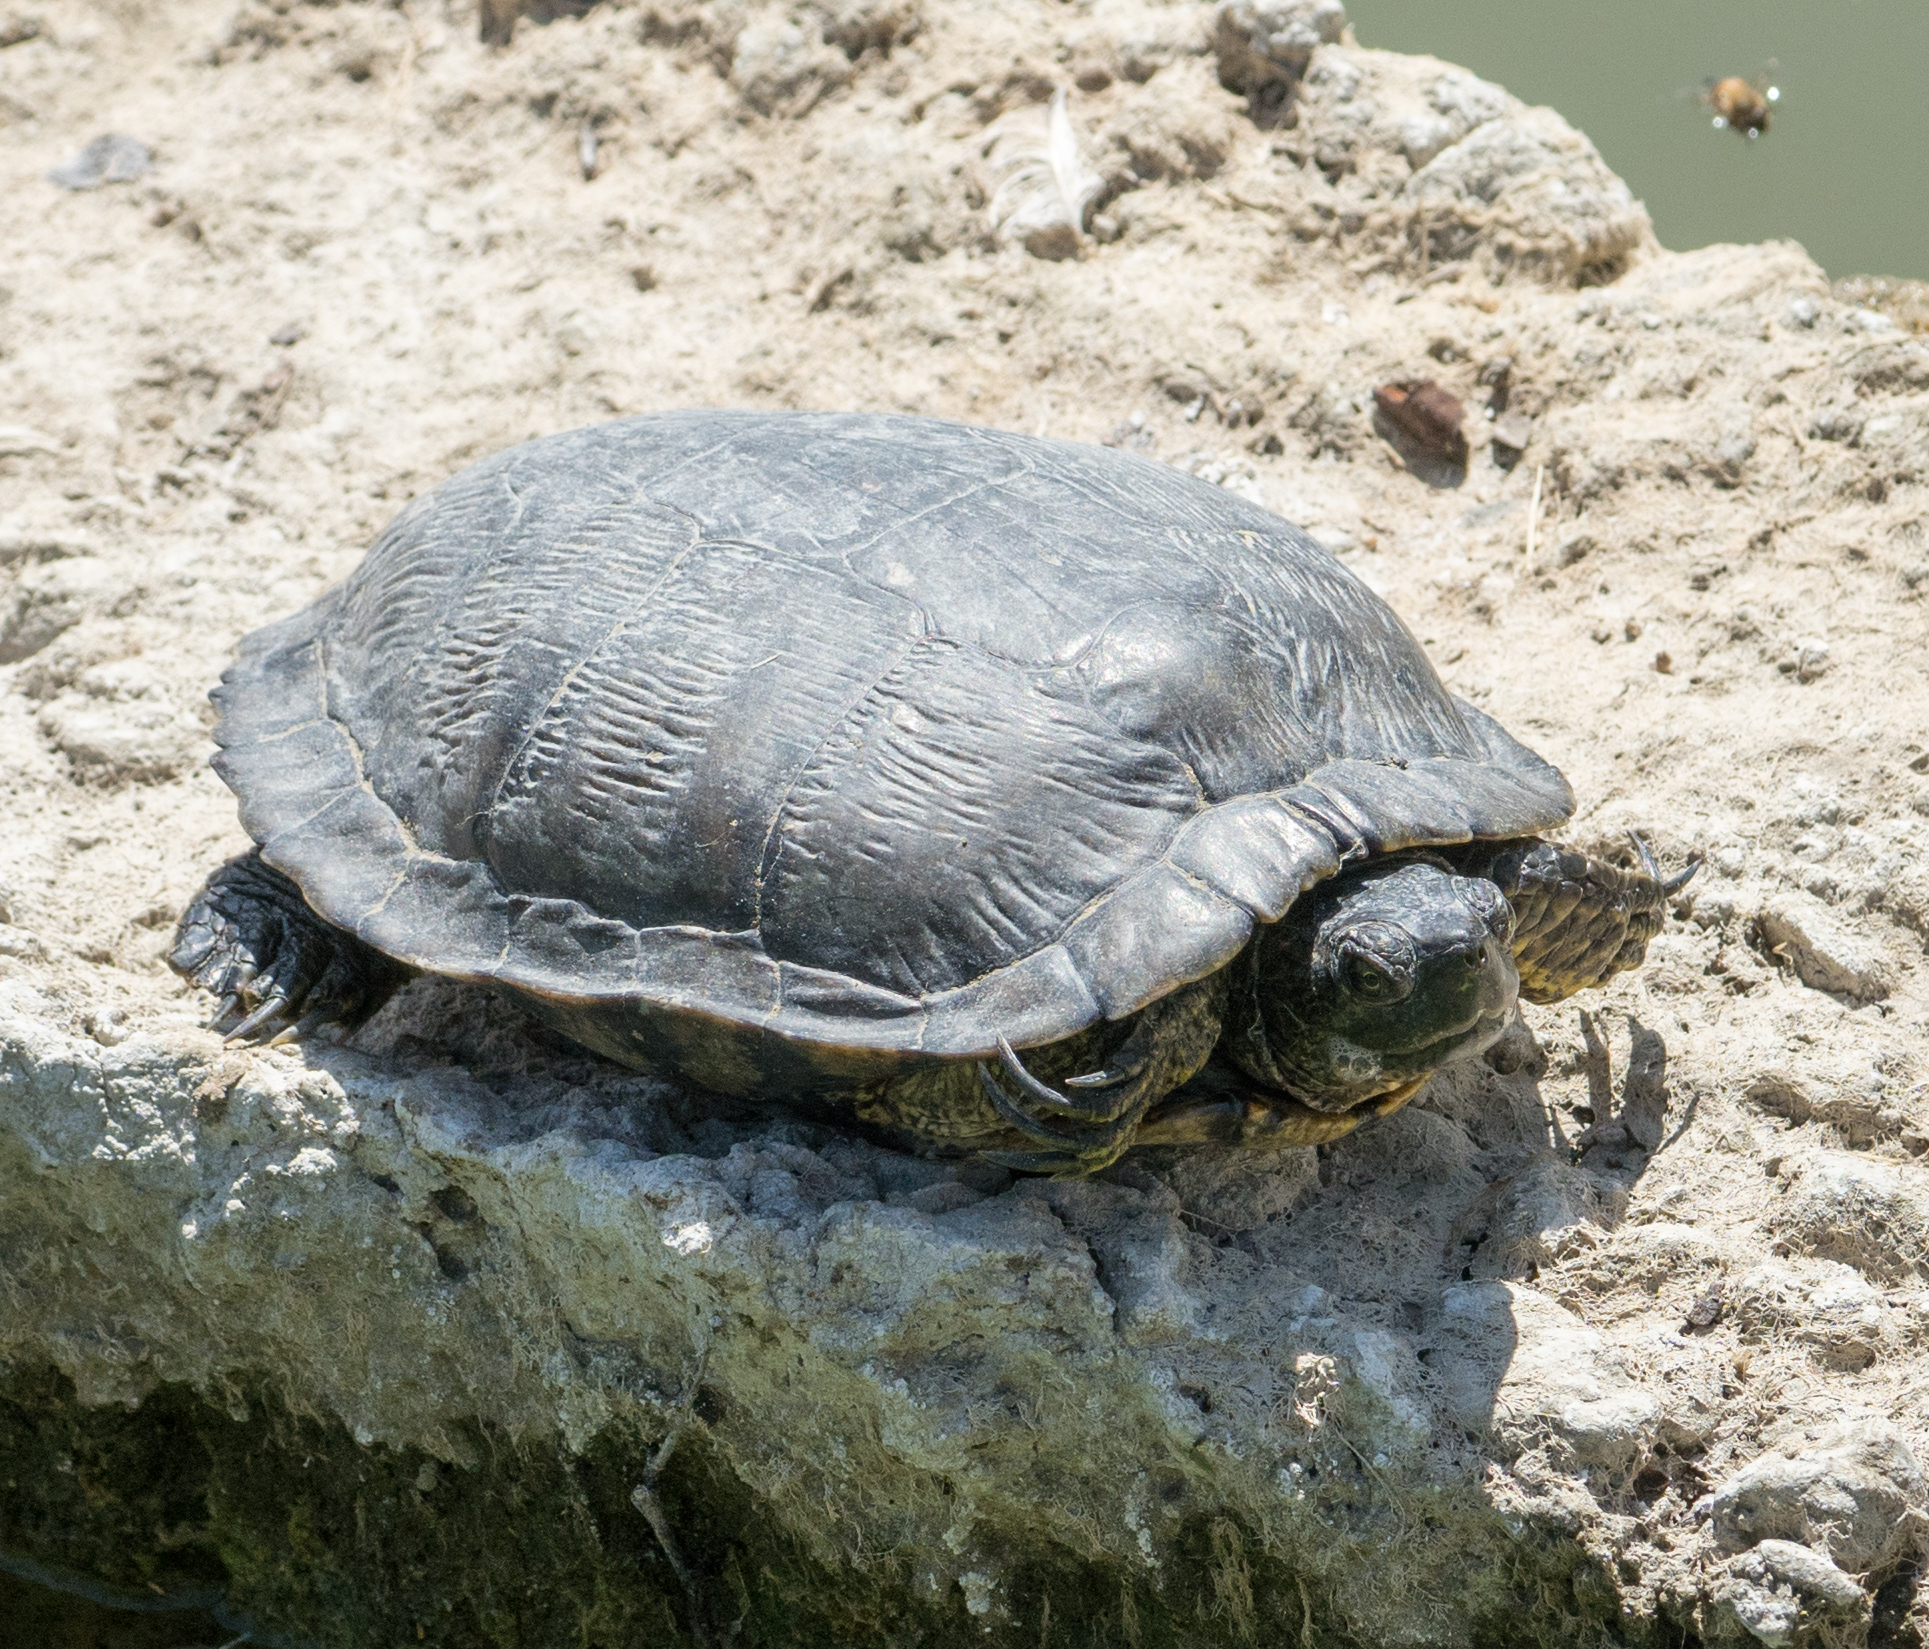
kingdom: Animalia
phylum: Chordata
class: Testudines
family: Emydidae
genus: Trachemys
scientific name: Trachemys scripta
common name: Slider
